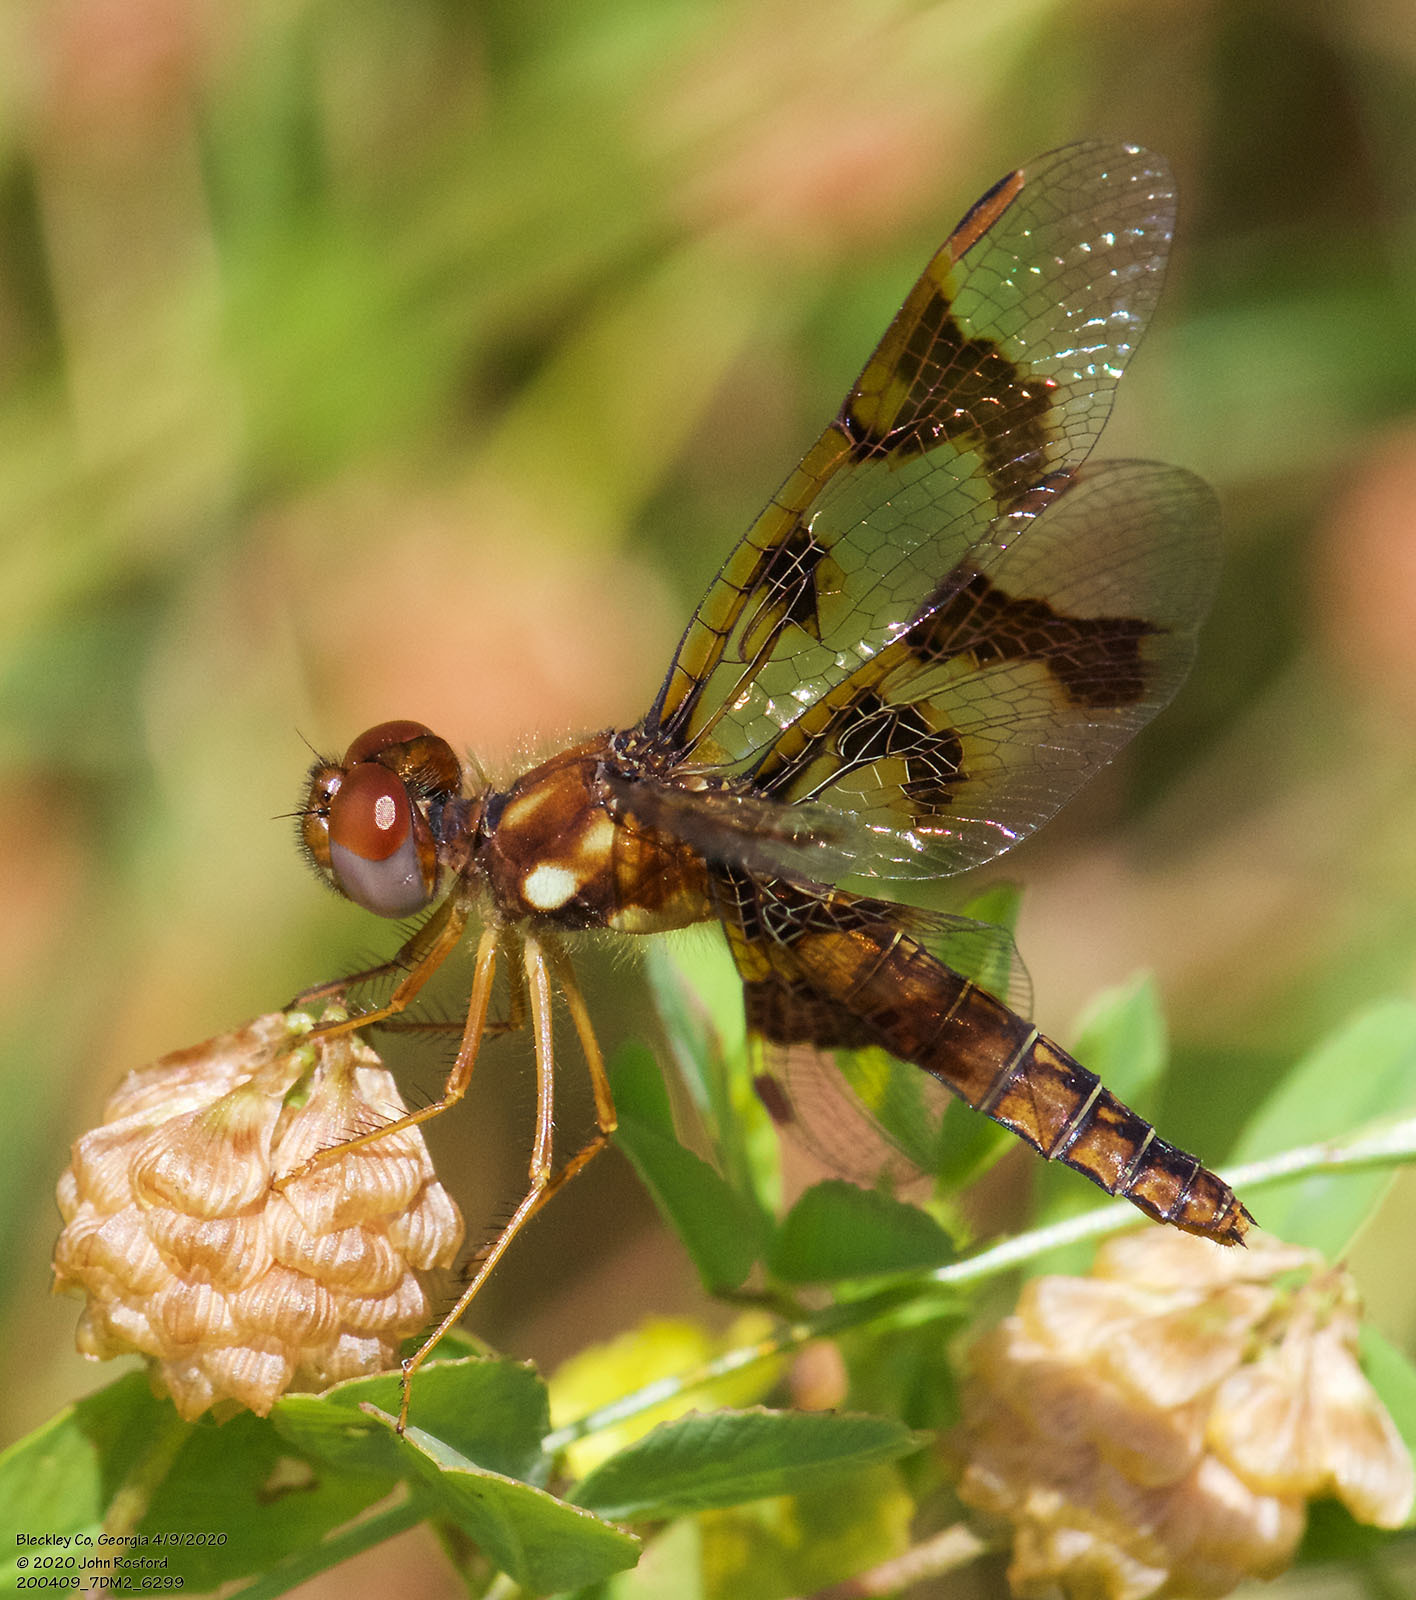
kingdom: Animalia
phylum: Arthropoda
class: Insecta
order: Odonata
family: Libellulidae
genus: Perithemis
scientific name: Perithemis tenera
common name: Eastern amberwing
